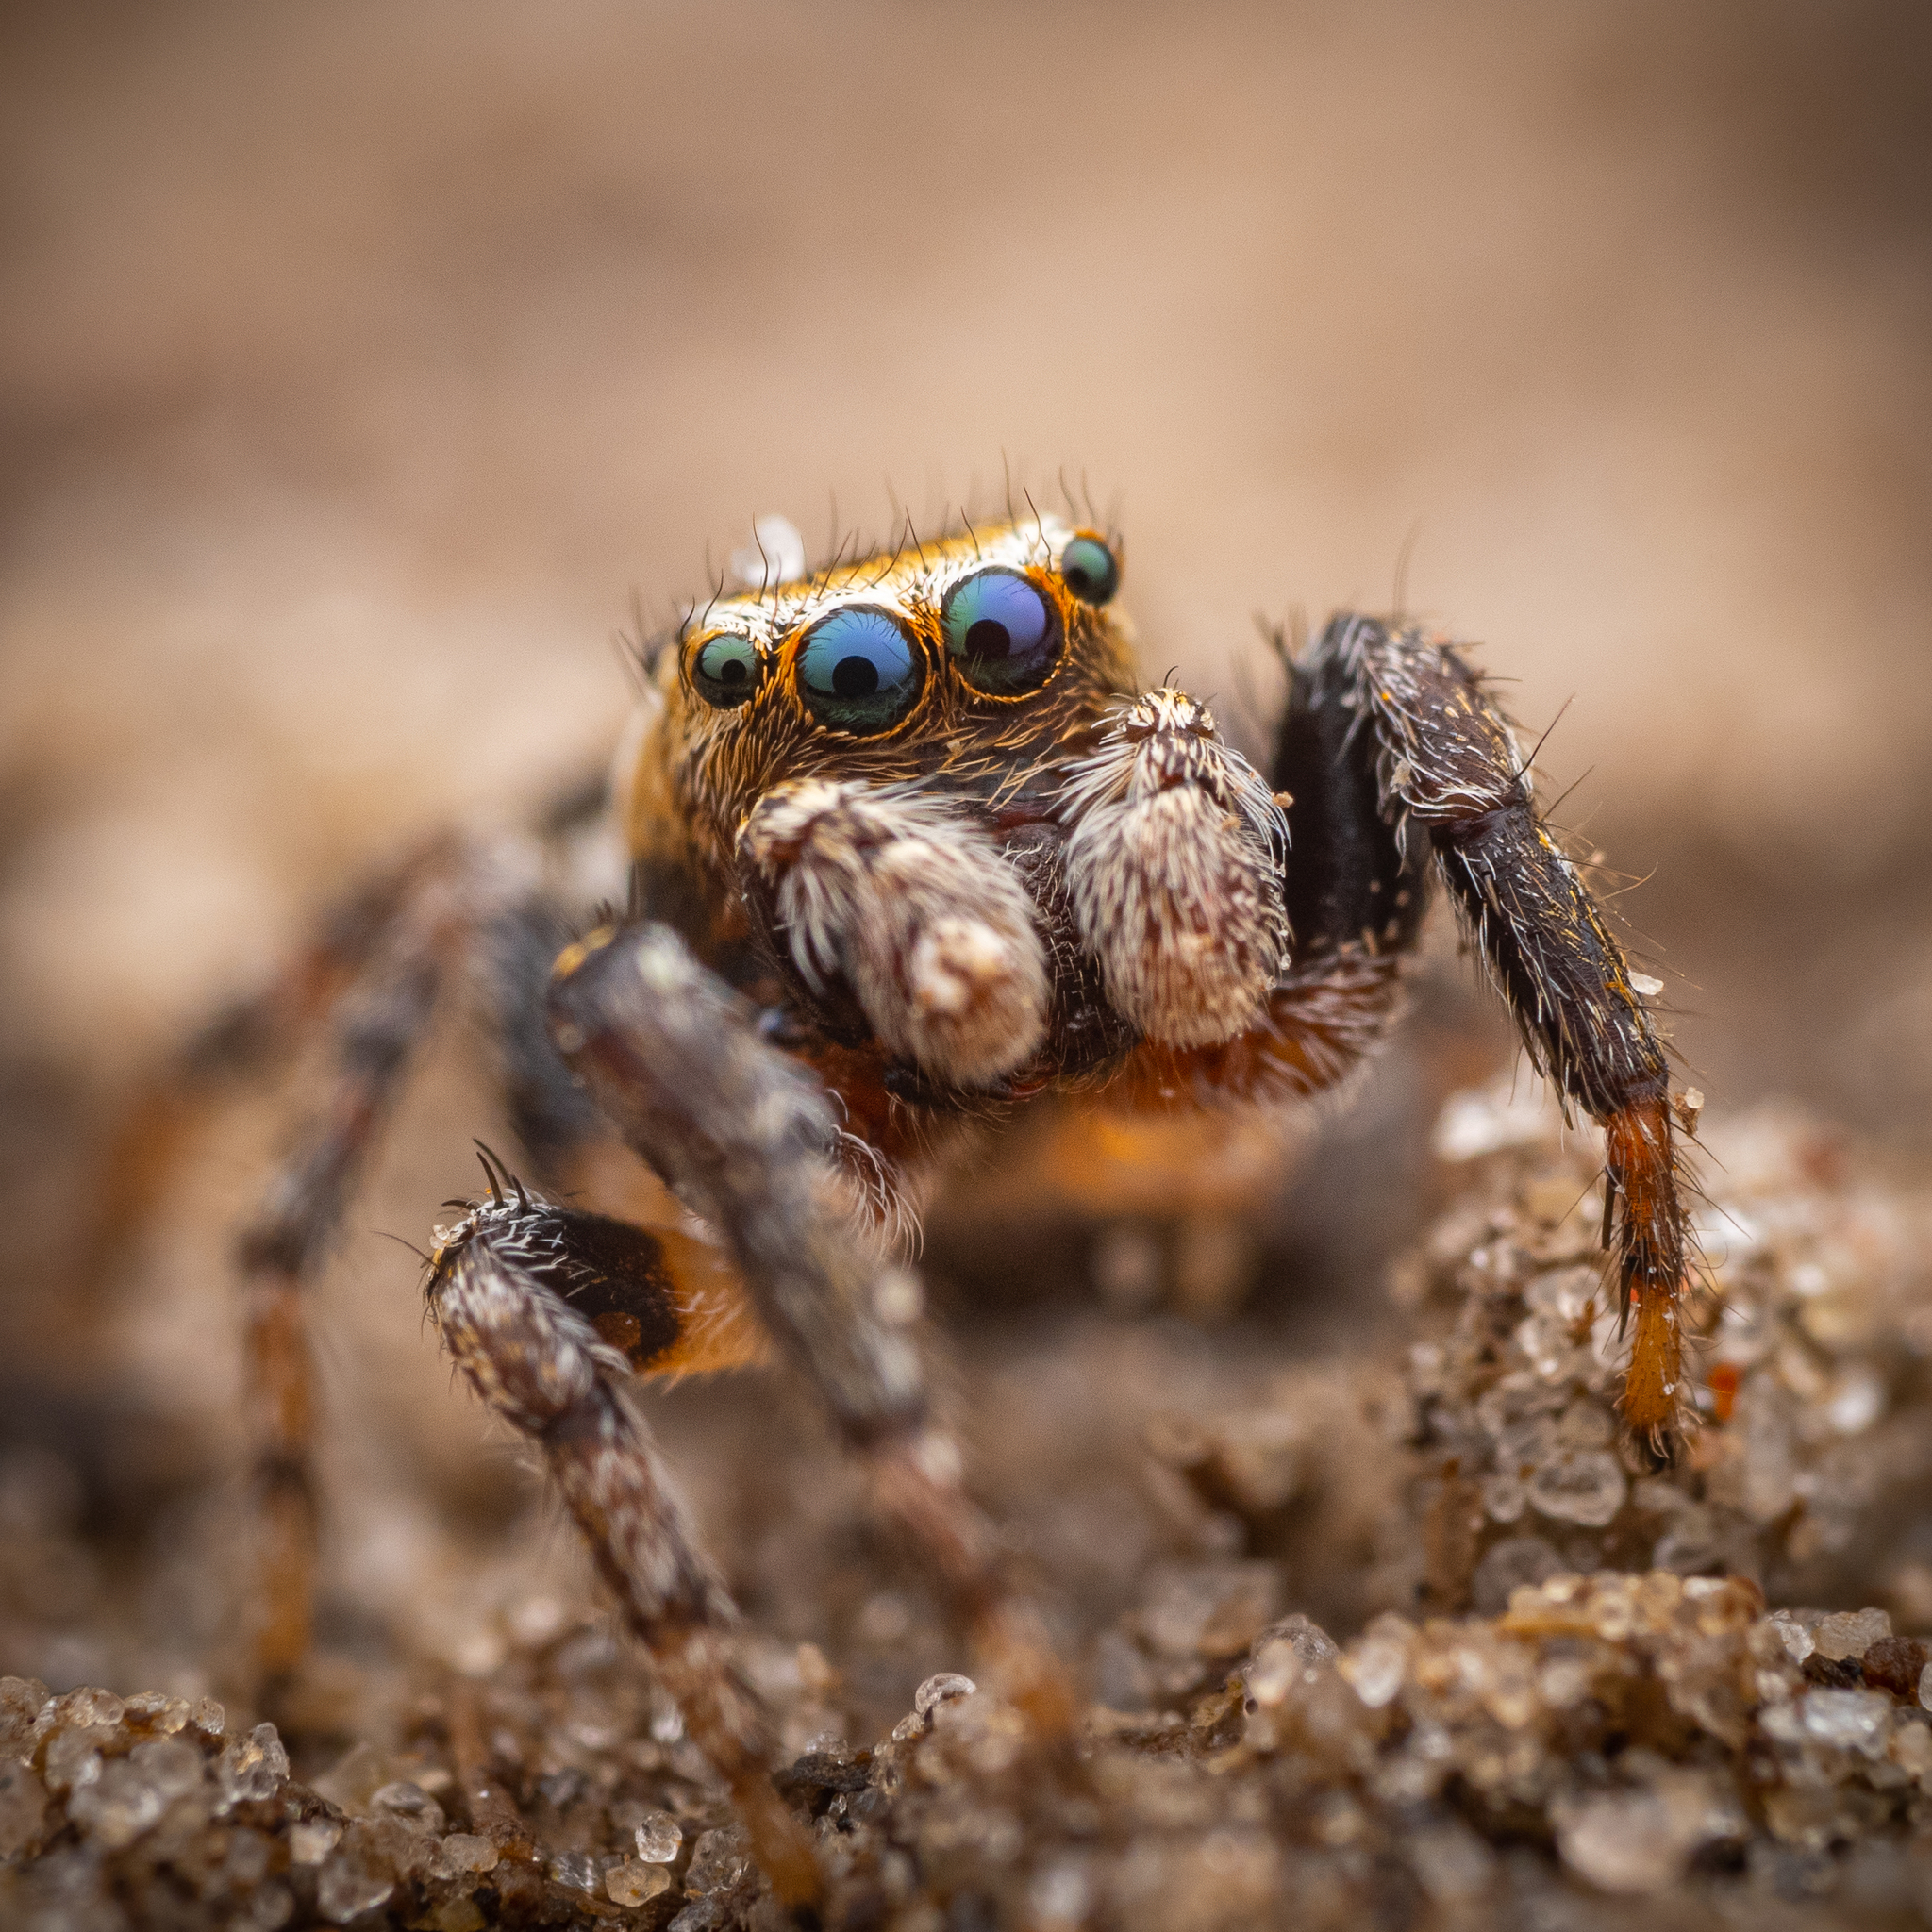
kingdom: Animalia
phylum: Arthropoda
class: Arachnida
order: Araneae
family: Salticidae
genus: Evarcha
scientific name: Evarcha falcata
